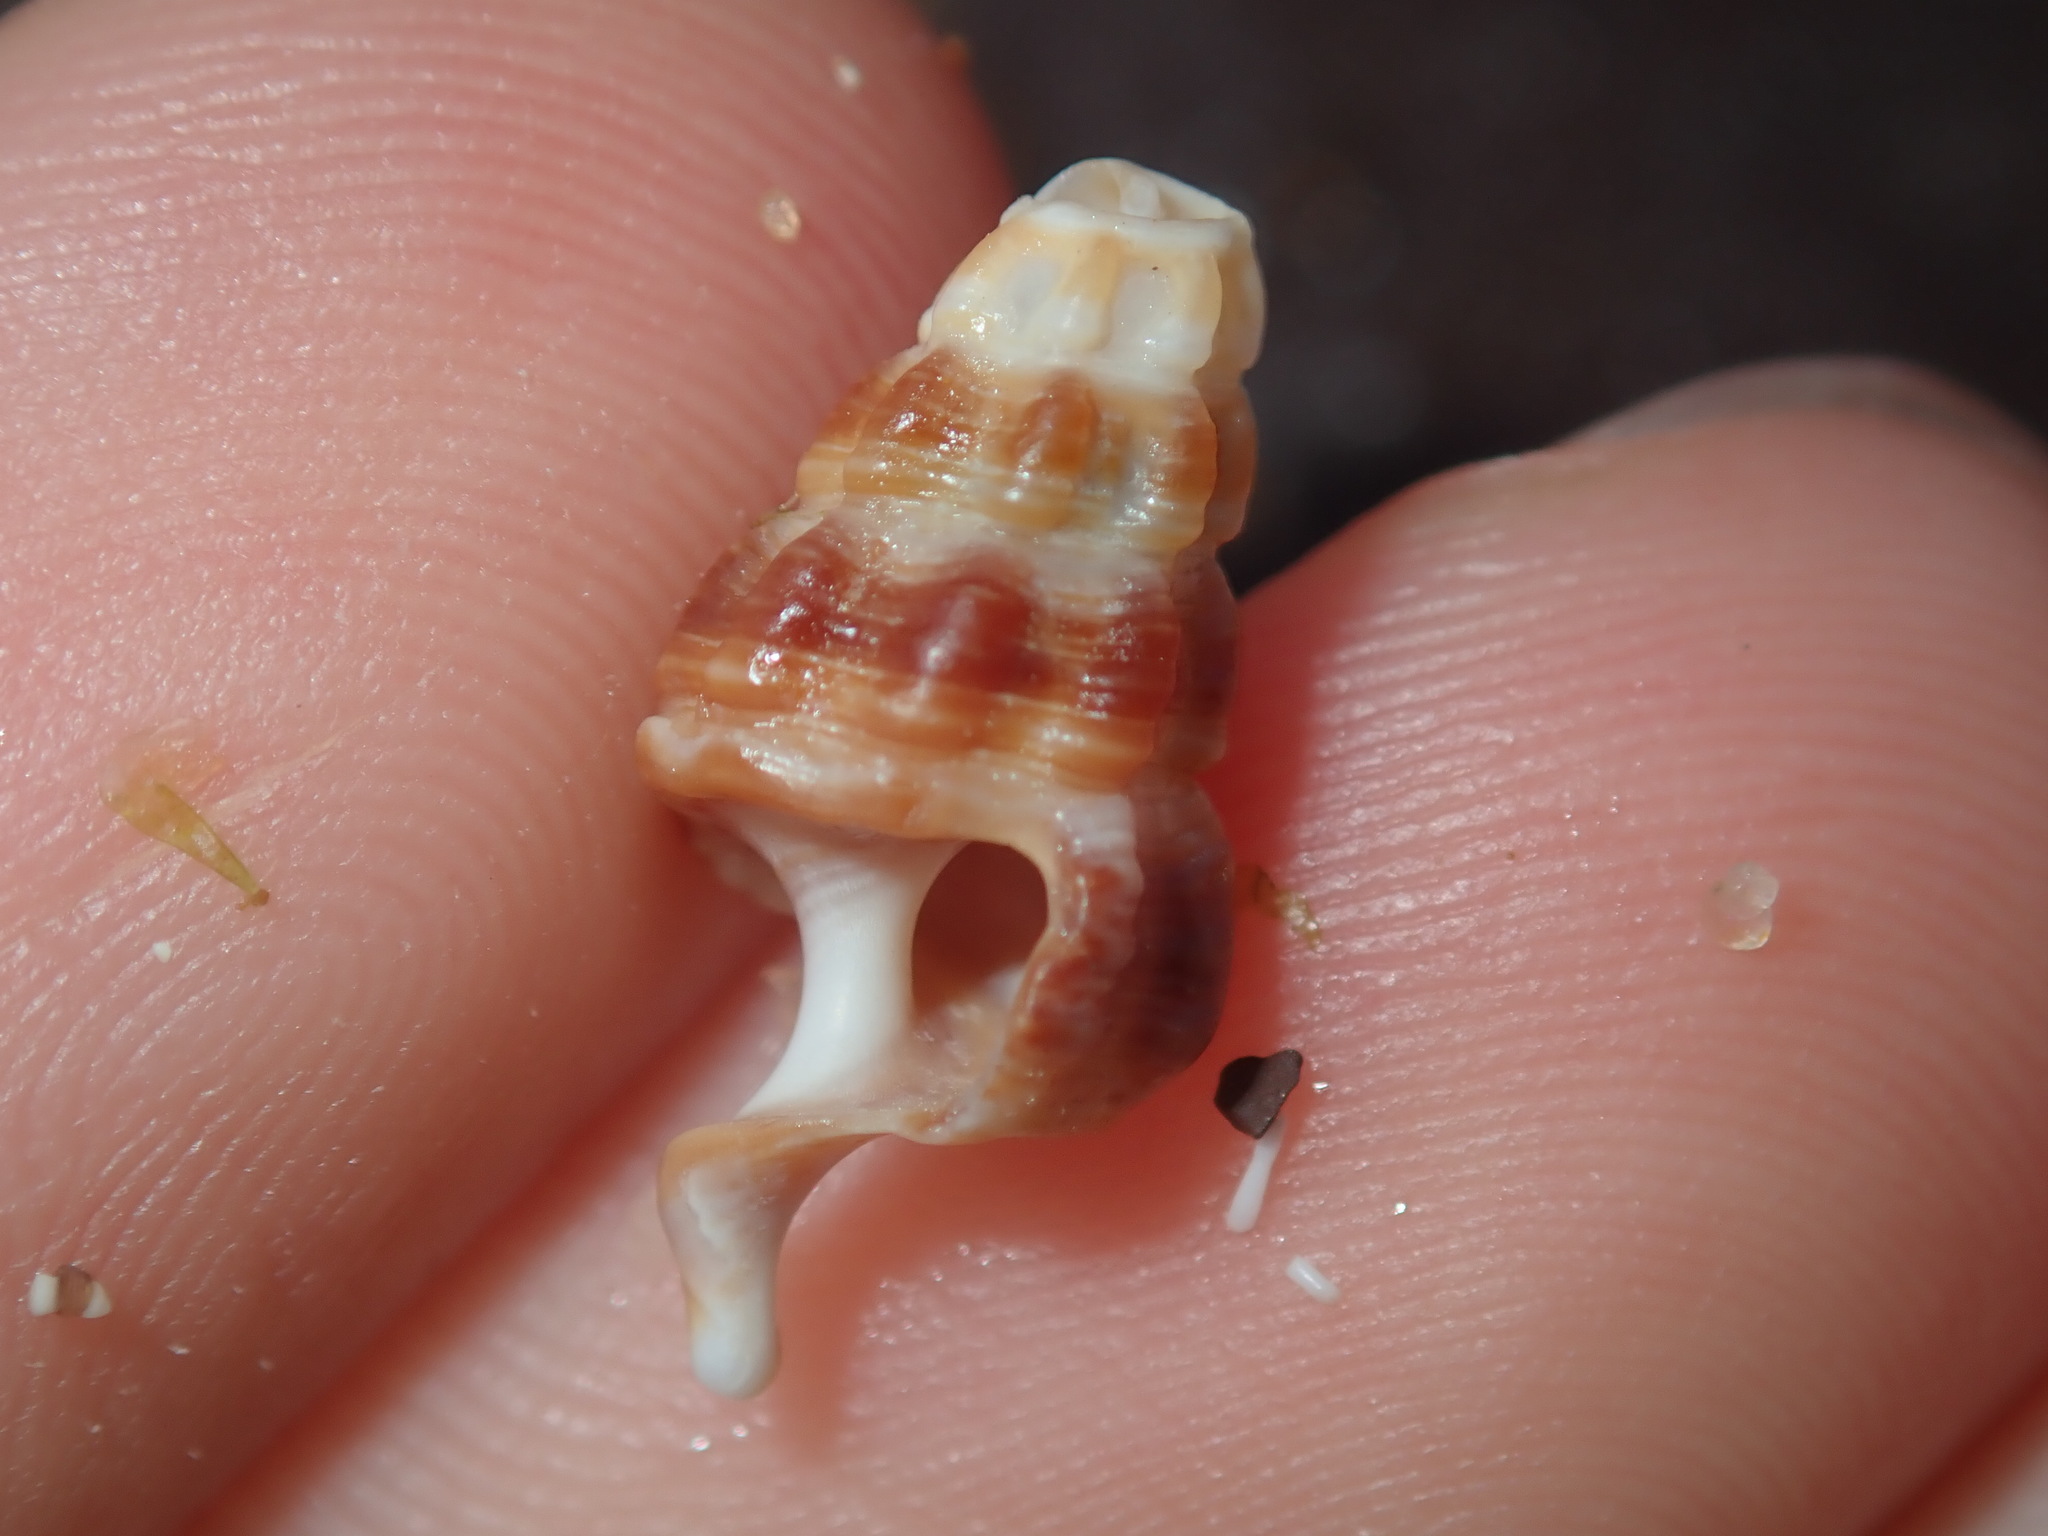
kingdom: Animalia
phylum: Mollusca
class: Gastropoda
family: Batillariidae
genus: Batillaria
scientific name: Batillaria australis
